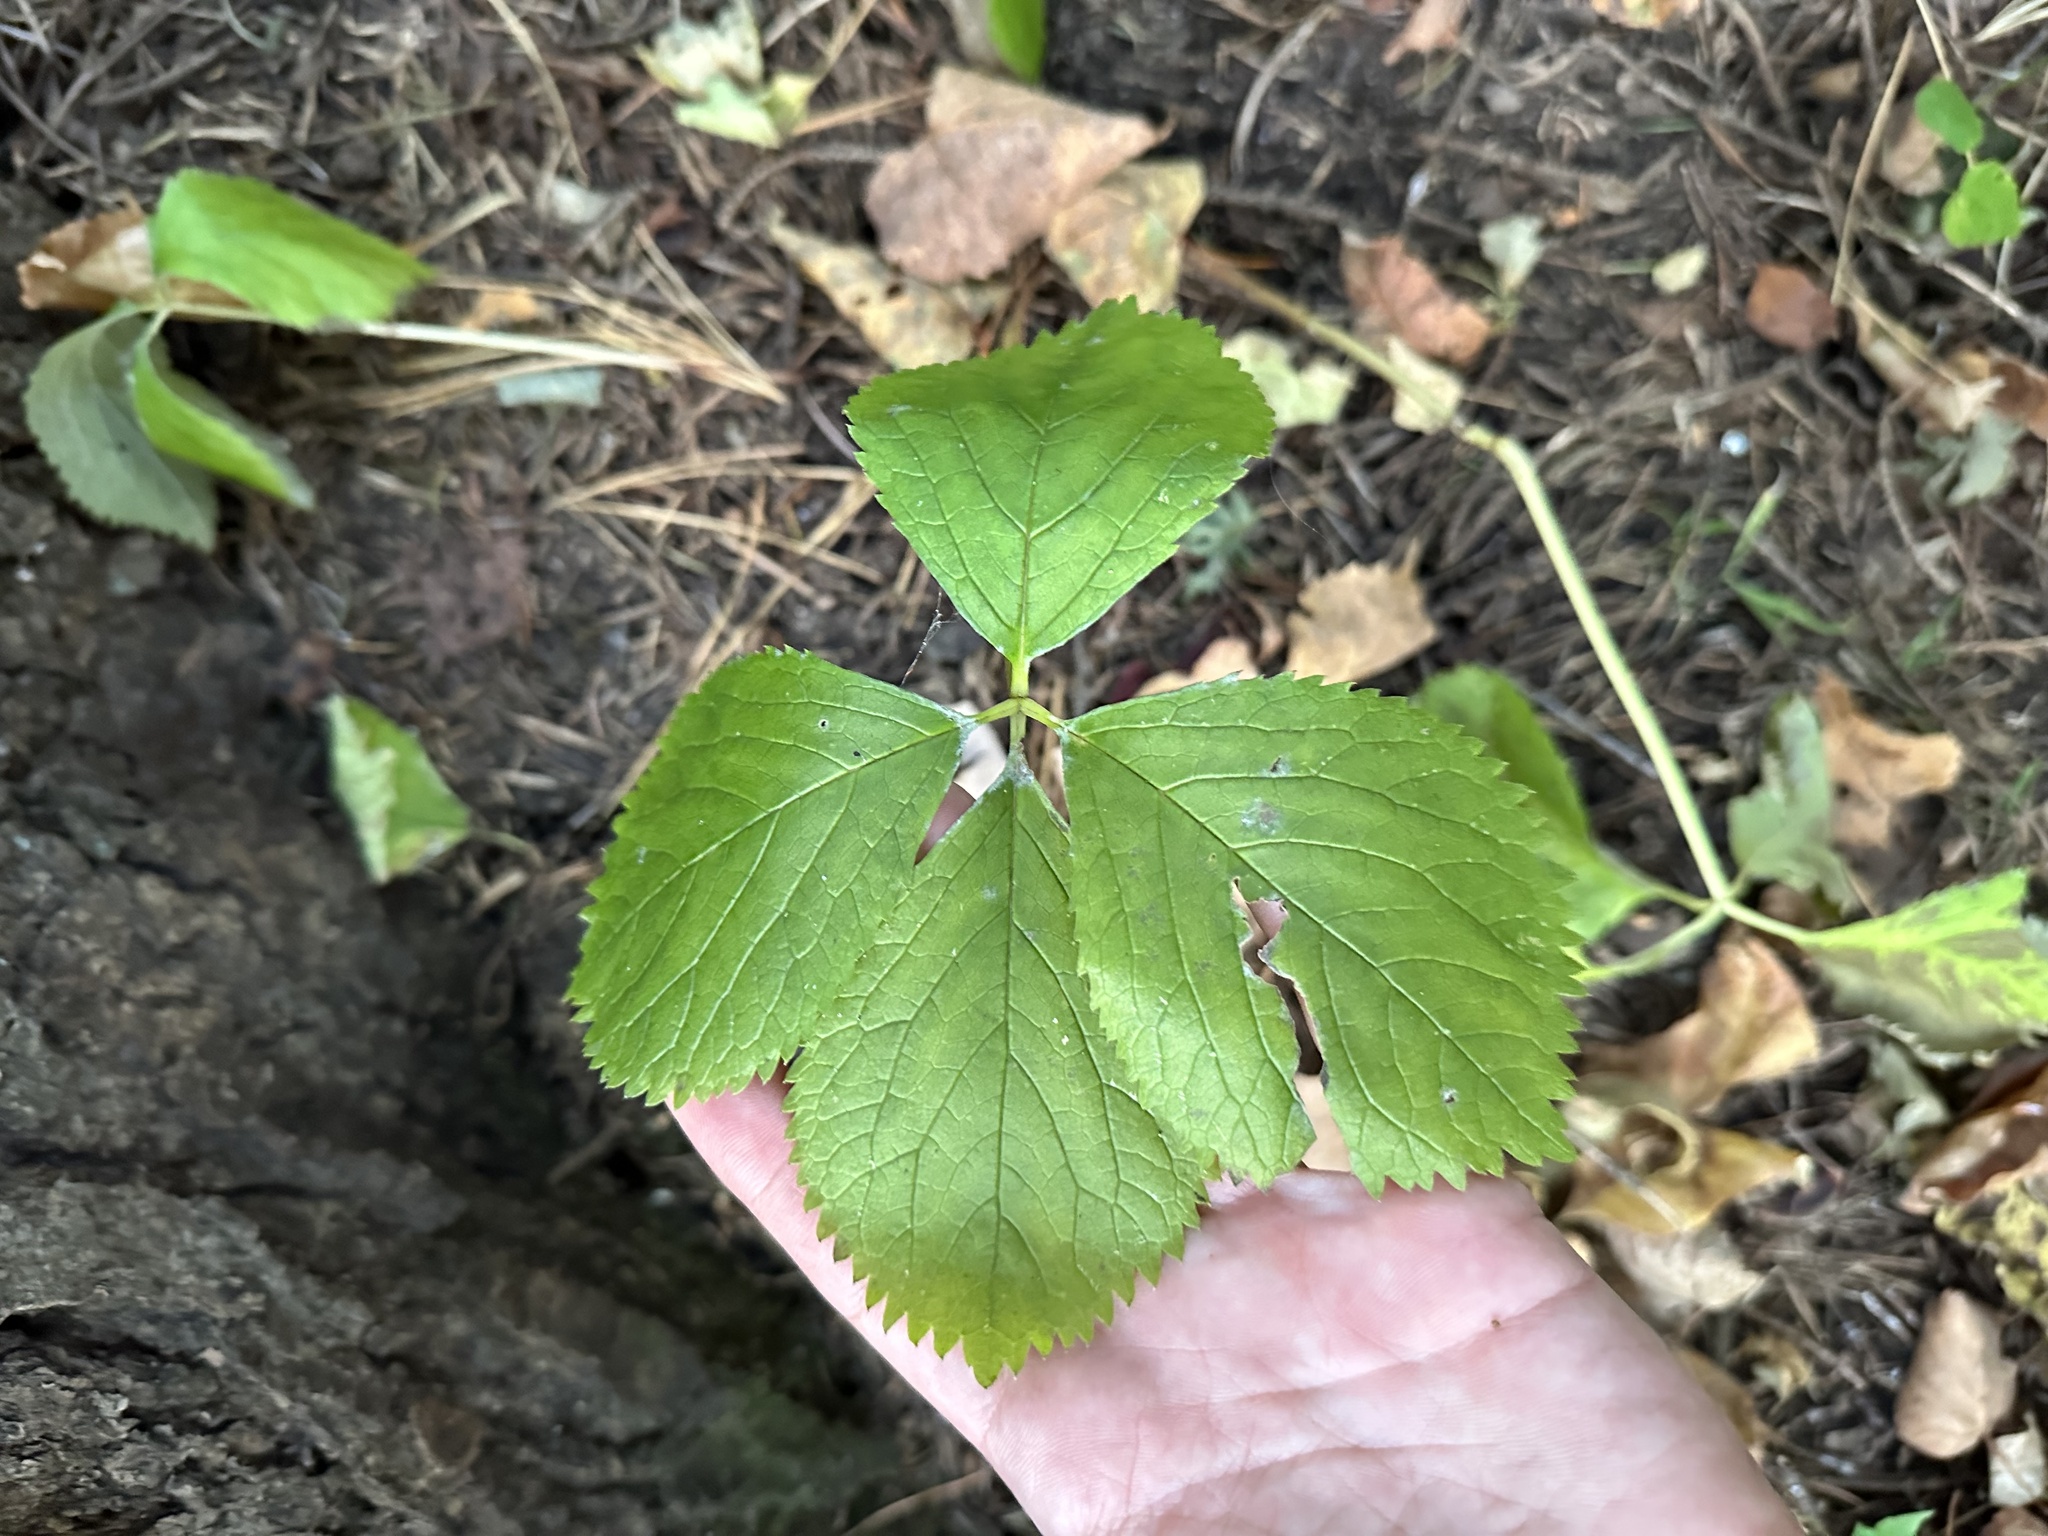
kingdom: Plantae
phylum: Tracheophyta
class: Magnoliopsida
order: Chloranthales
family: Chloranthaceae
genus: Chloranthus
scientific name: Chloranthus quadrifolius
